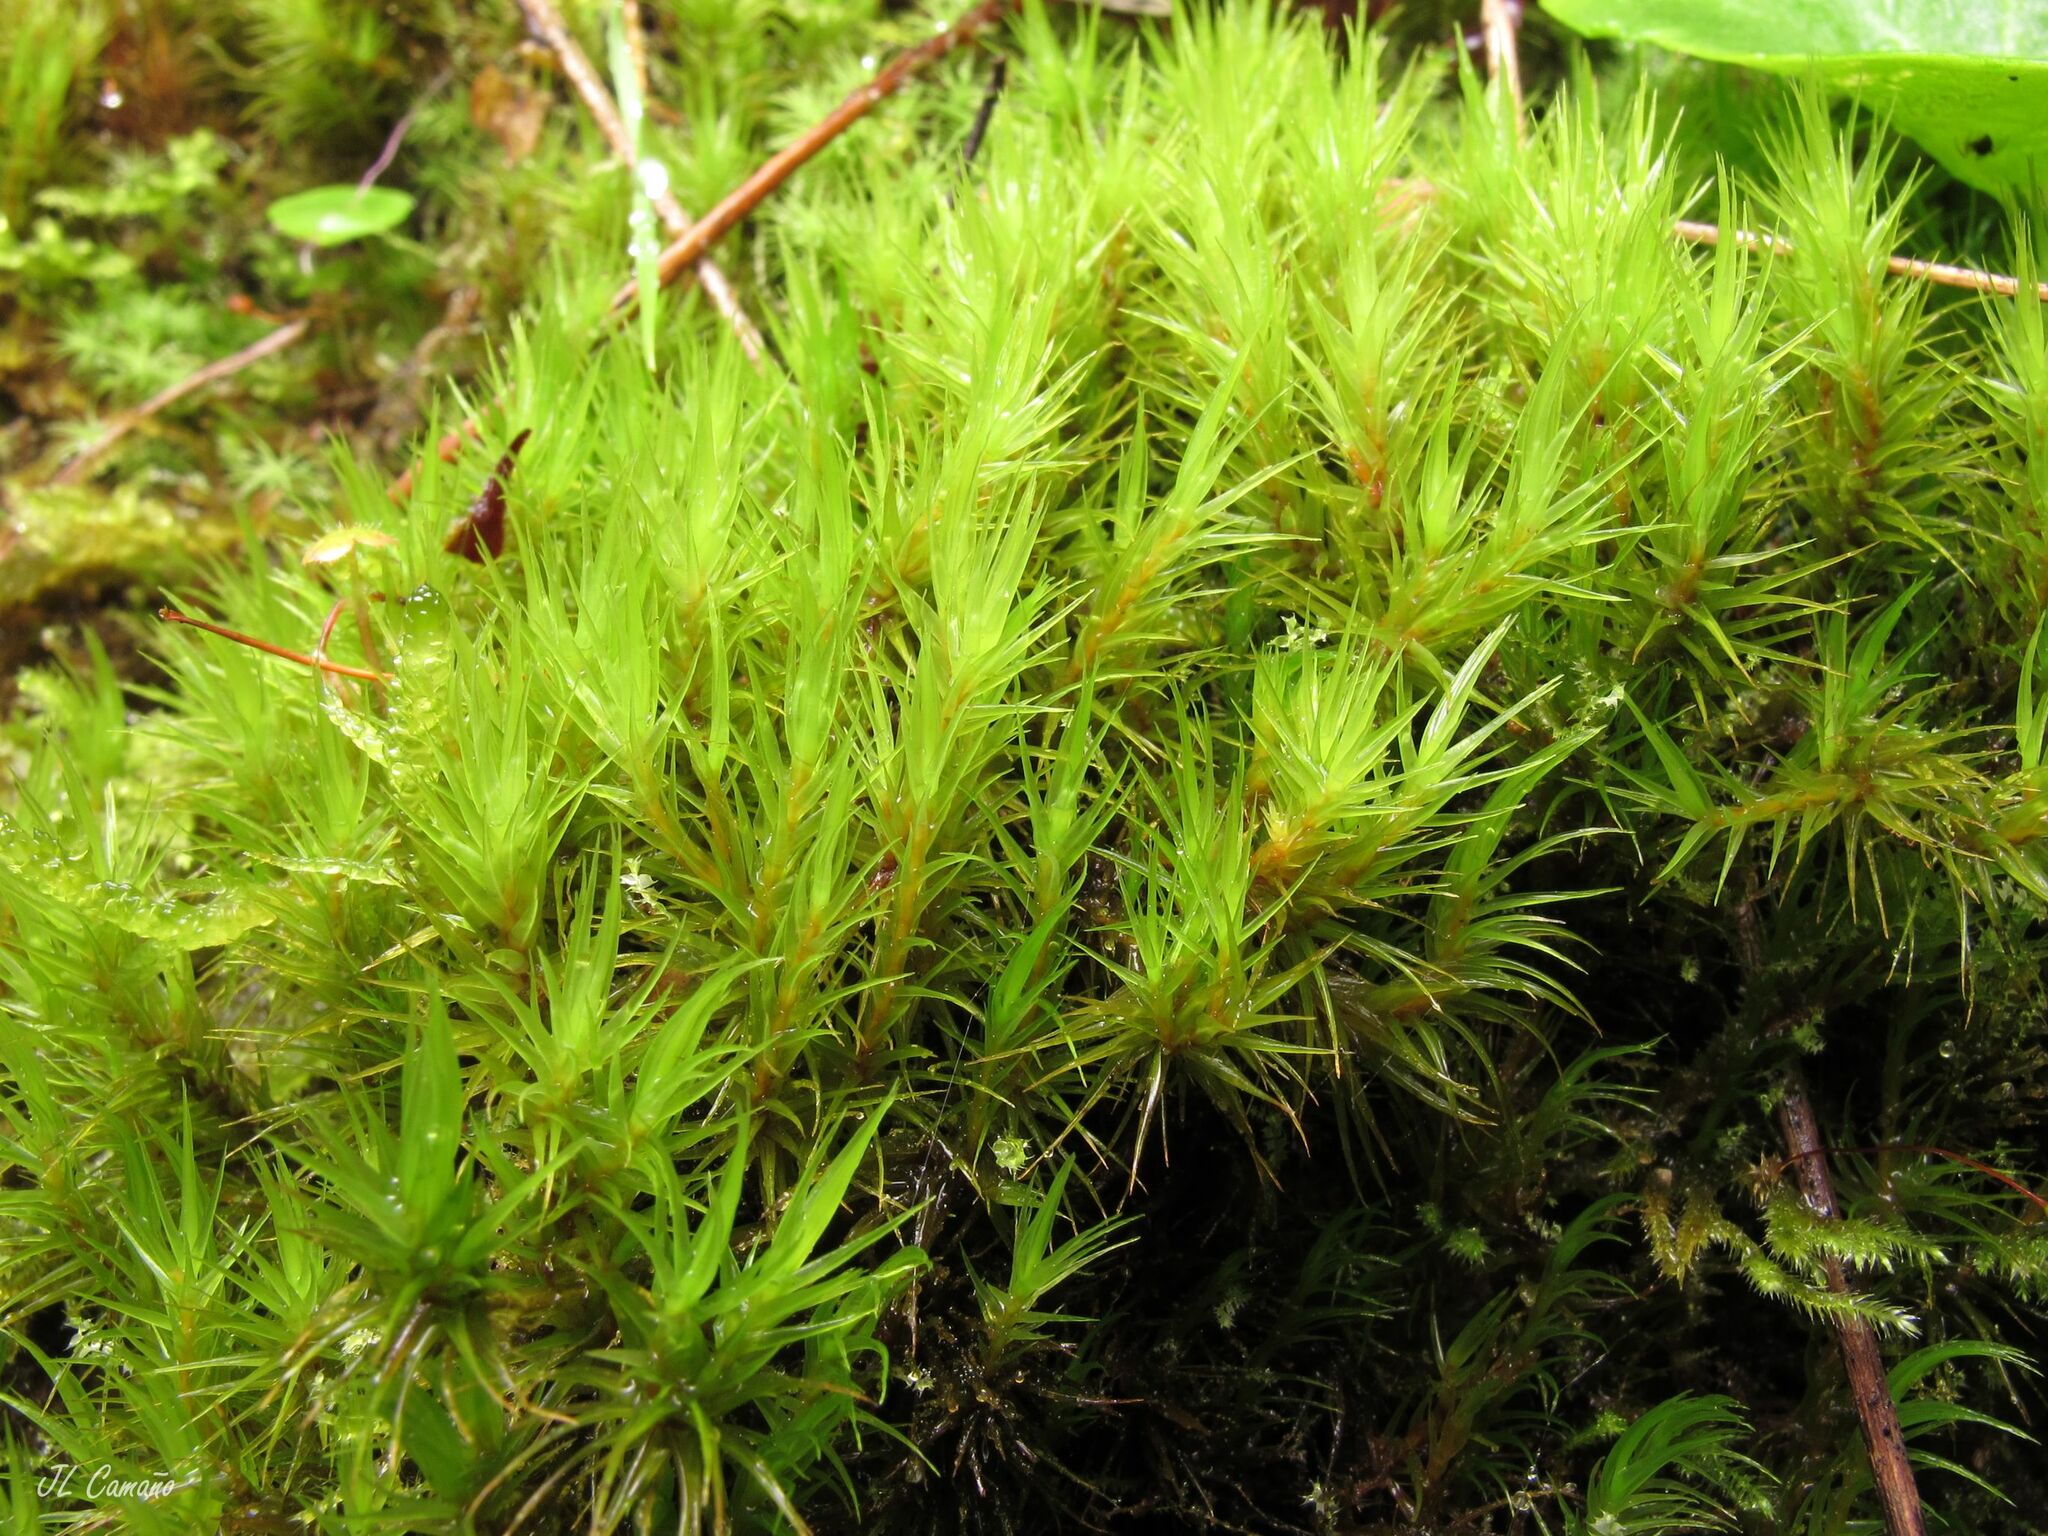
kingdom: Plantae
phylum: Bryophyta
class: Bryopsida
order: Dicranales
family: Dicranaceae
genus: Dicranum
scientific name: Dicranum scoparium
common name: Broom fork-moss
